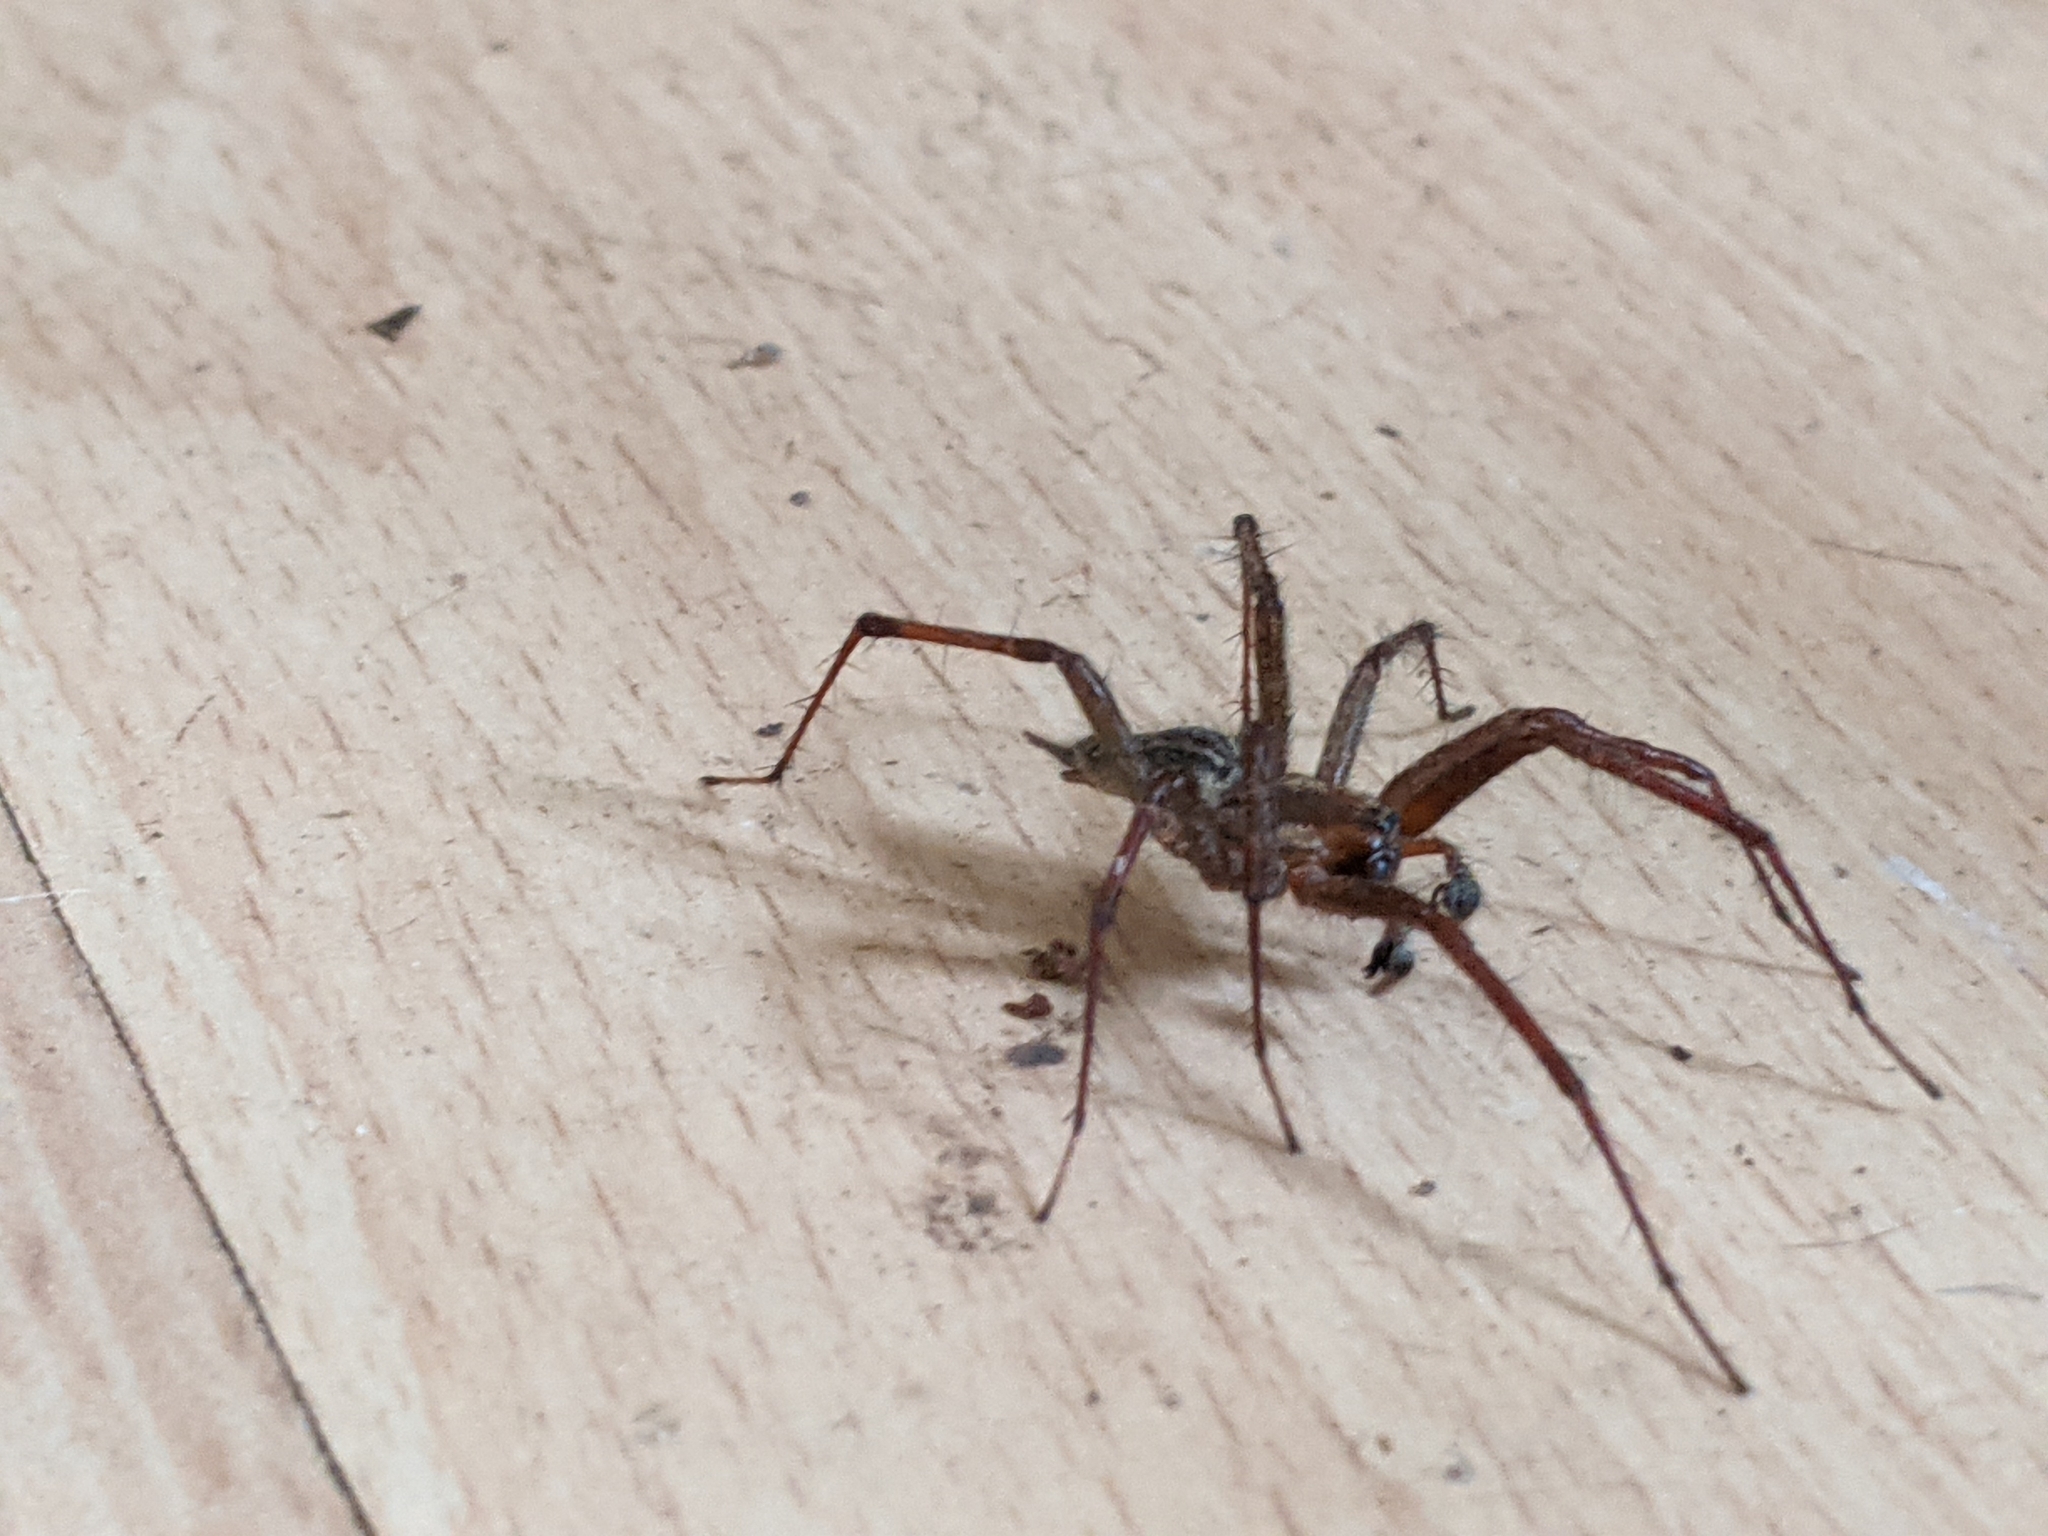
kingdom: Animalia
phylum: Arthropoda
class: Arachnida
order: Araneae
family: Agelenidae
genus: Agelenopsis
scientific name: Agelenopsis
